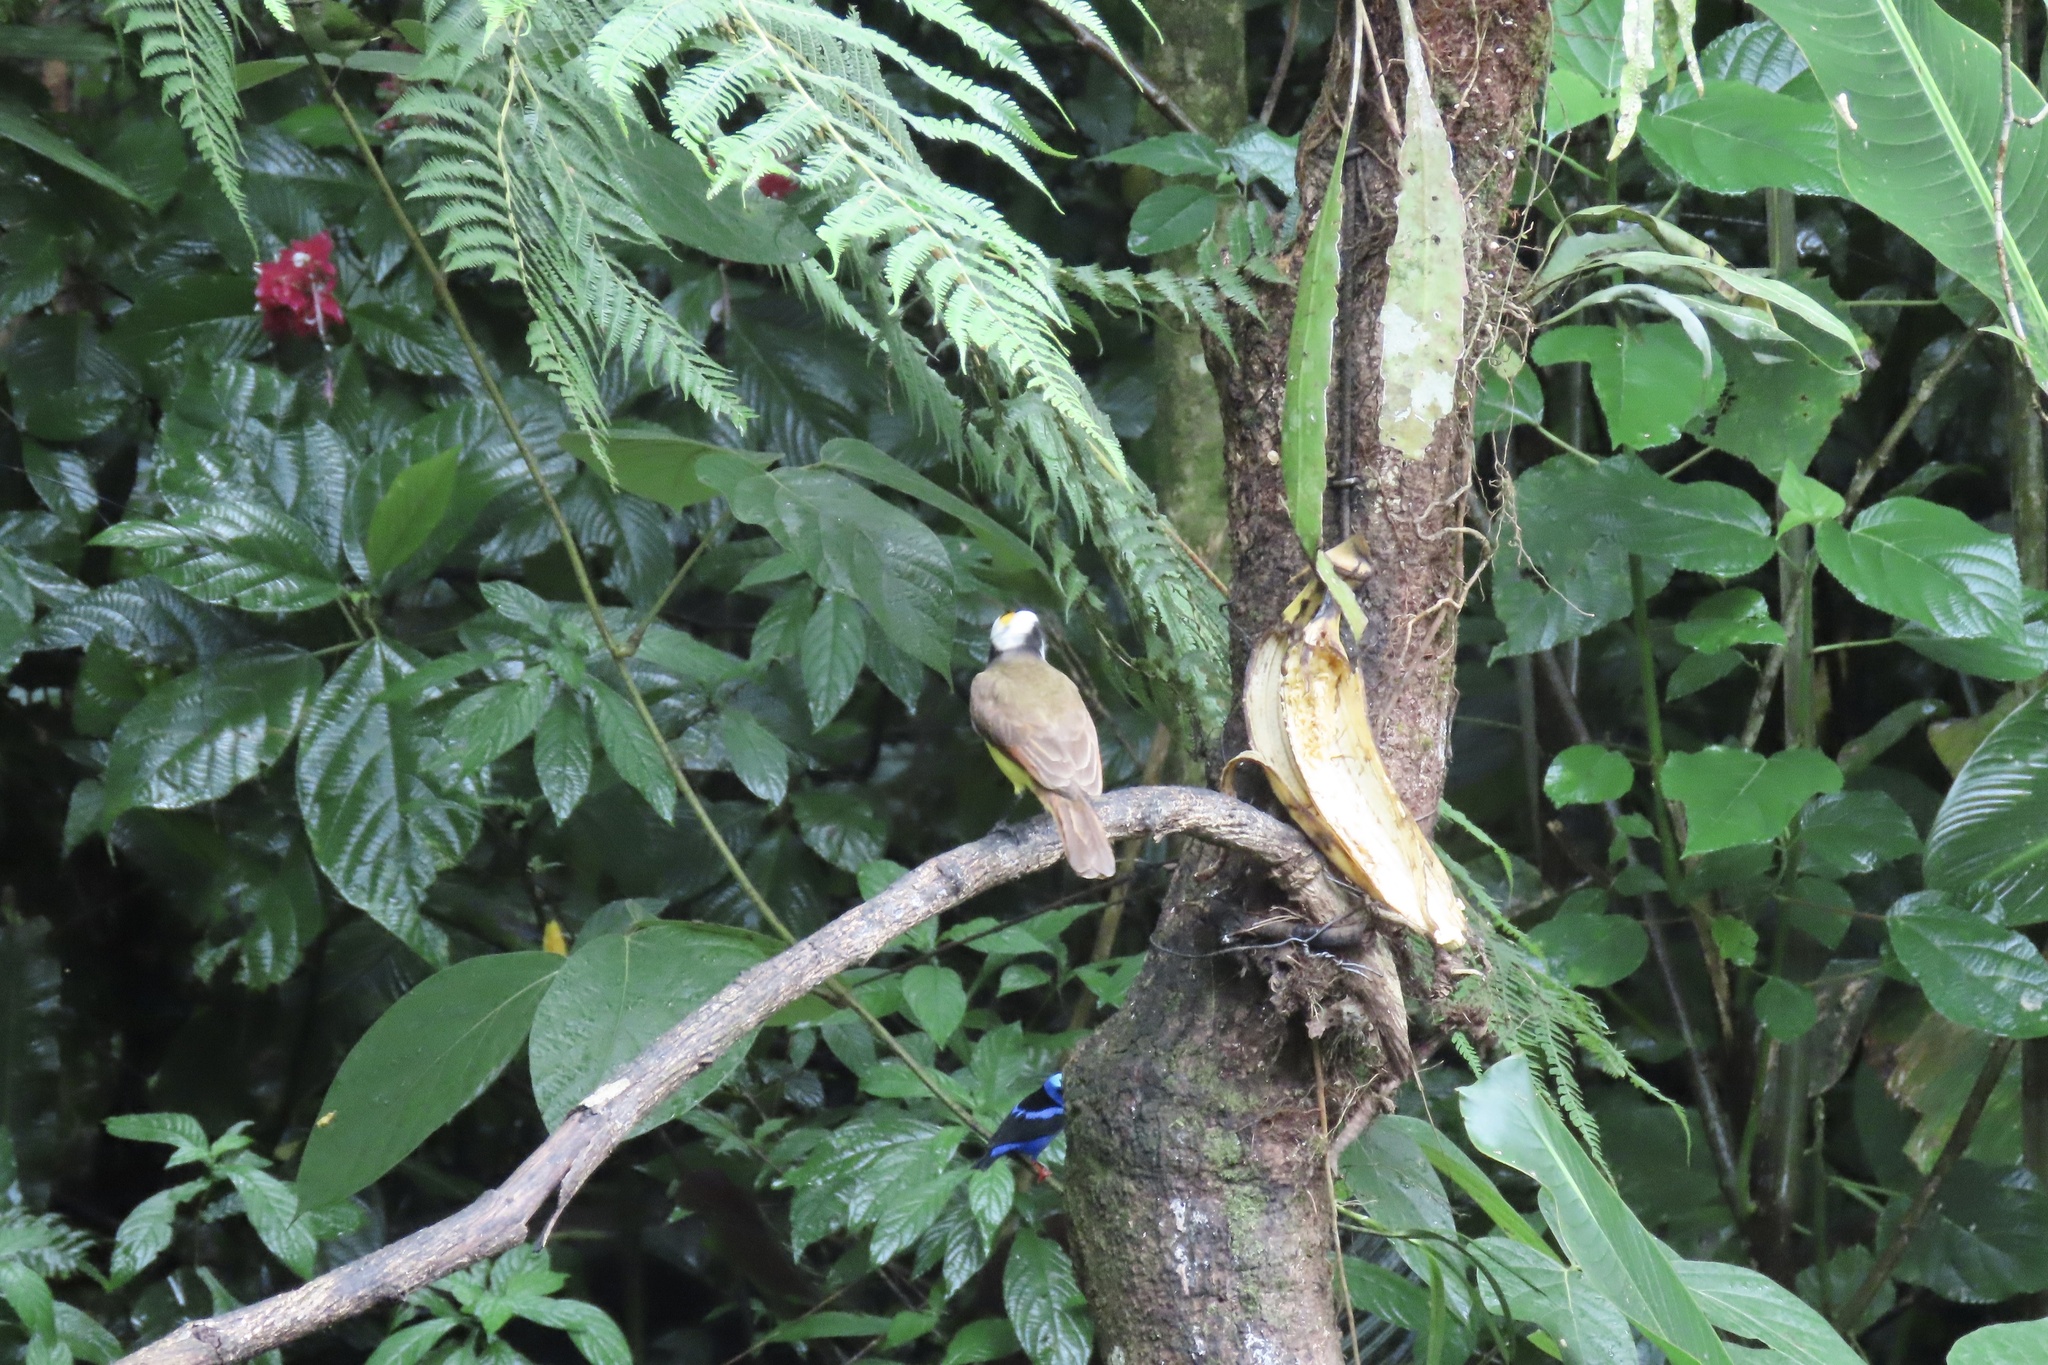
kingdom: Animalia
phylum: Chordata
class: Aves
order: Passeriformes
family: Tyrannidae
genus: Pitangus
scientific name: Pitangus sulphuratus
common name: Great kiskadee
